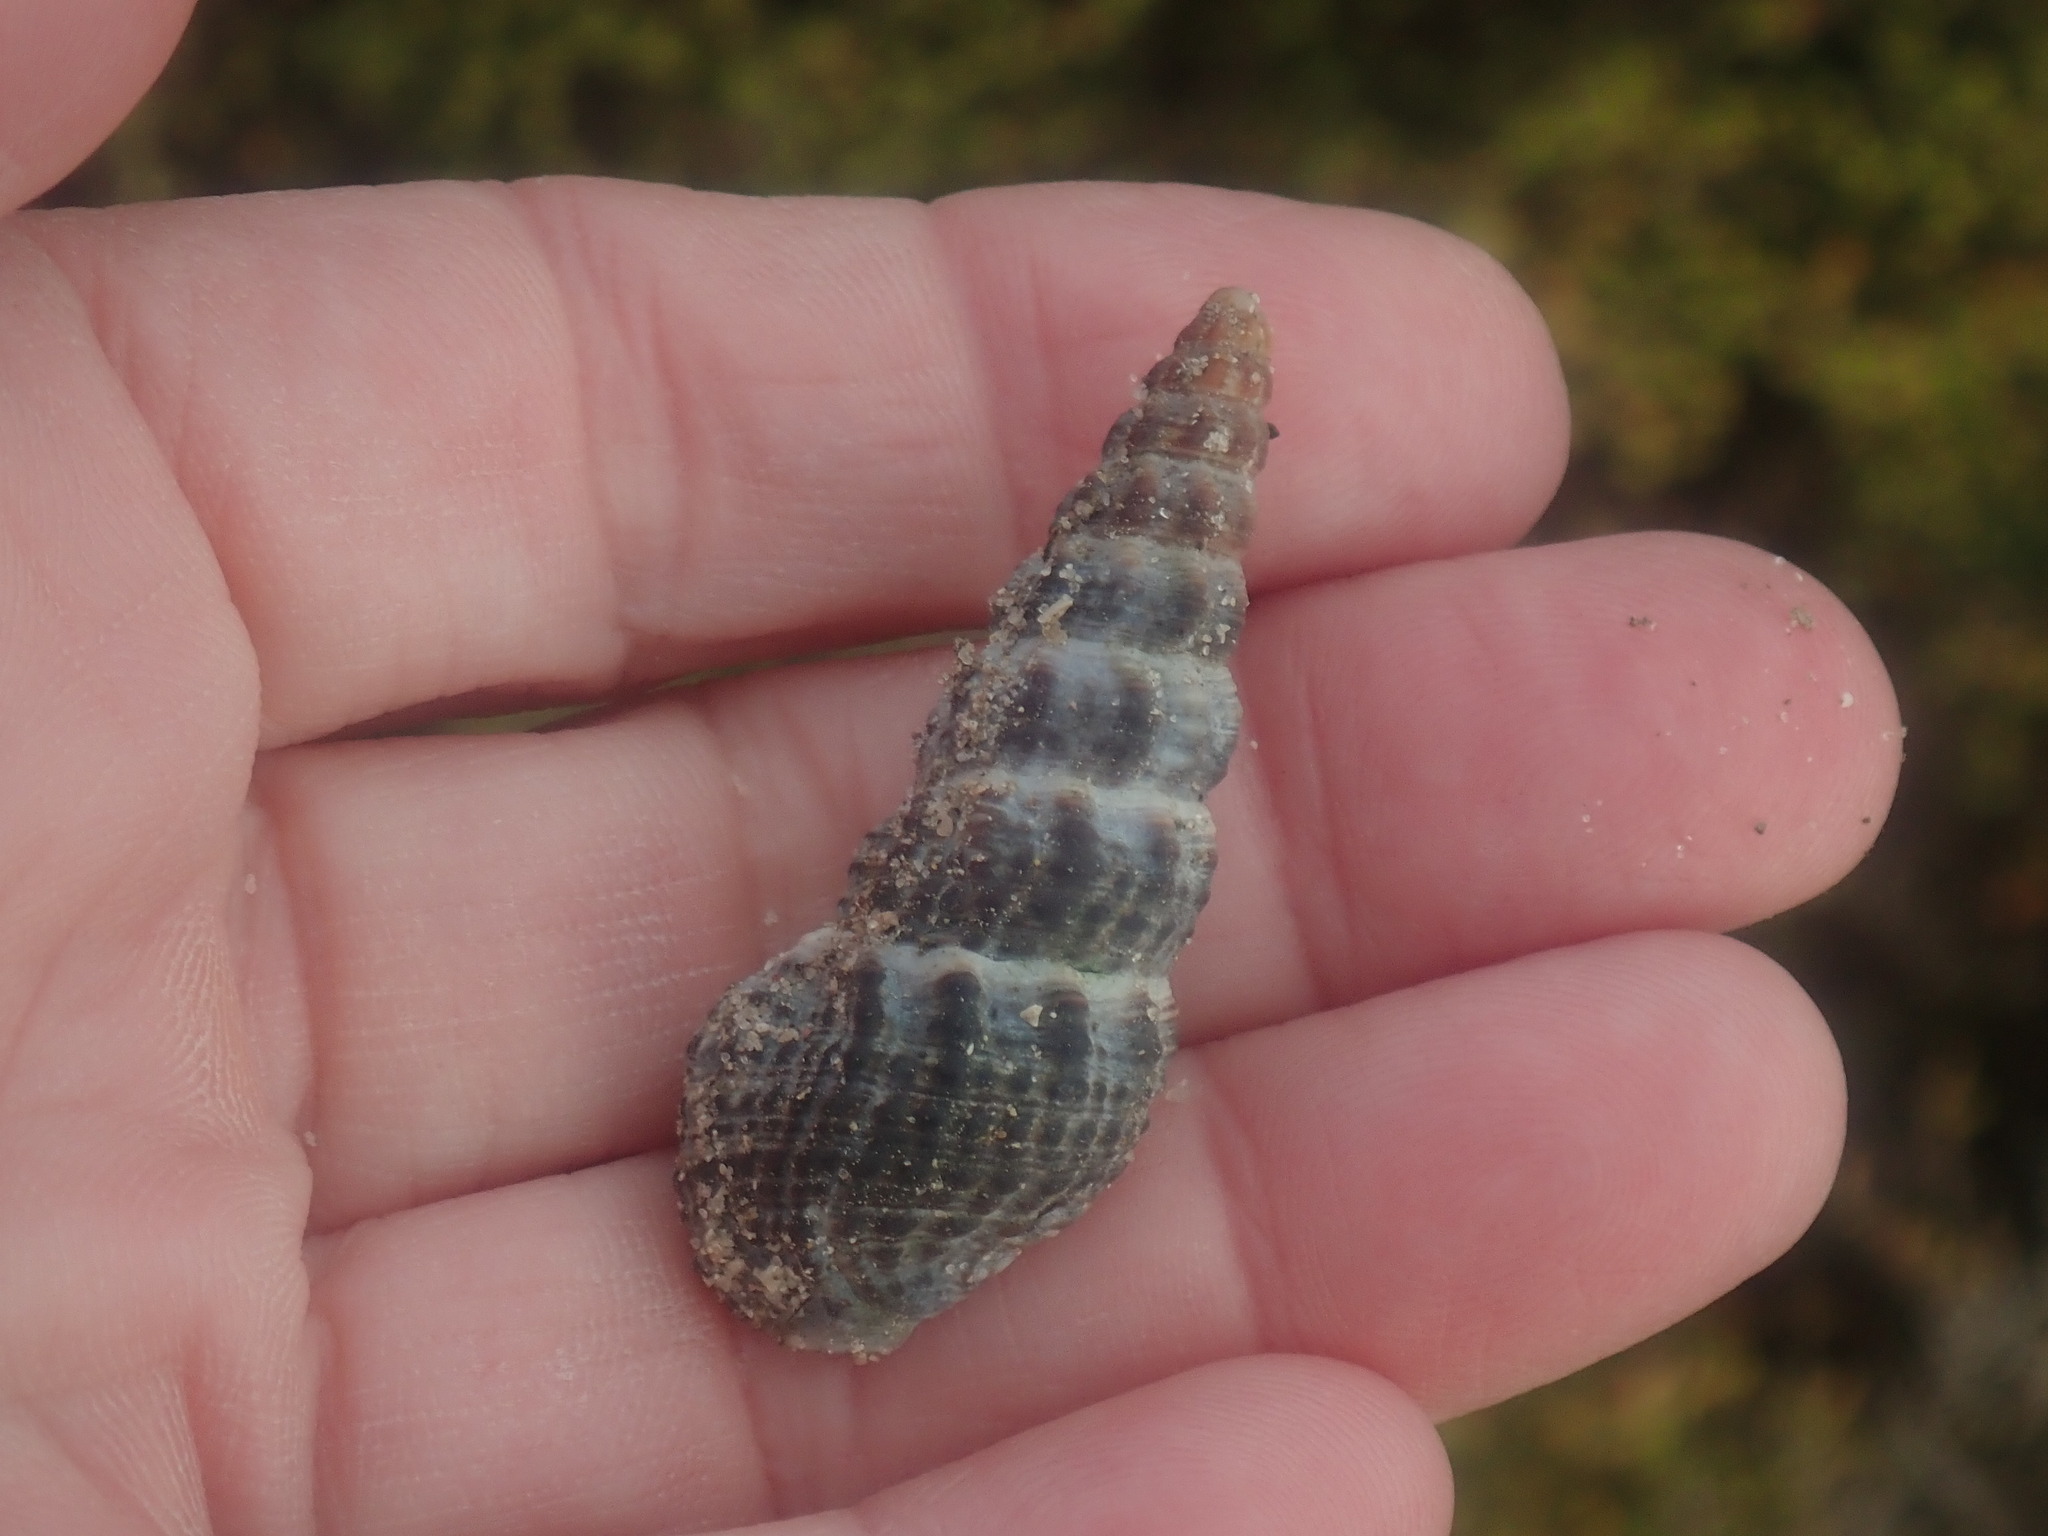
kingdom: Animalia
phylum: Mollusca
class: Gastropoda
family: Batillariidae
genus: Batillaria
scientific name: Batillaria australis
